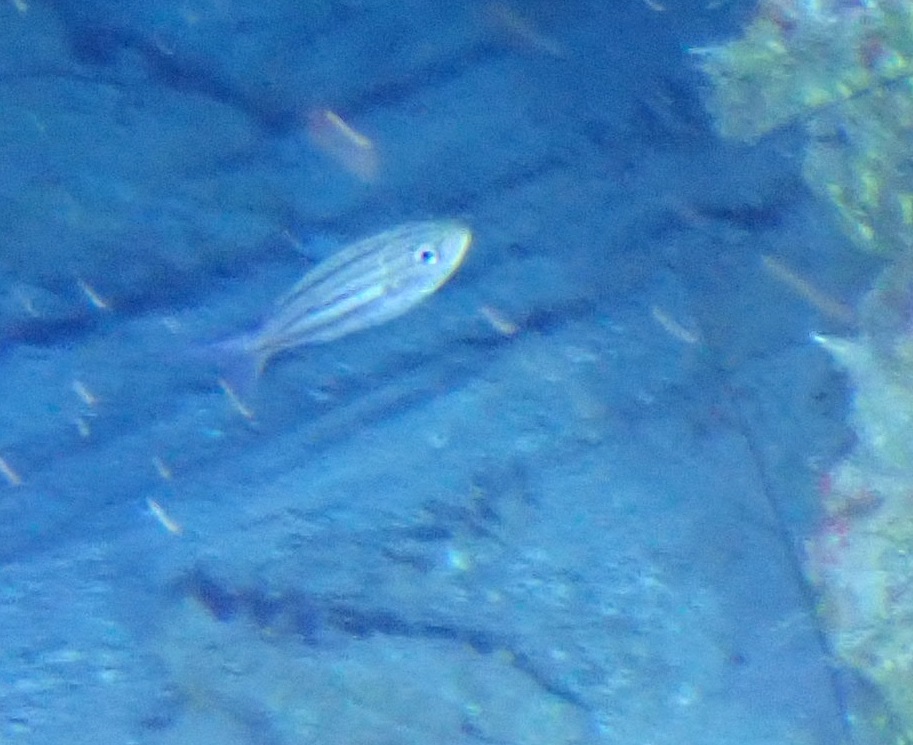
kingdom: Animalia
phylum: Chordata
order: Perciformes
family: Haemulidae
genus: Haemulon
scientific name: Haemulon vittatum
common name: Boga
